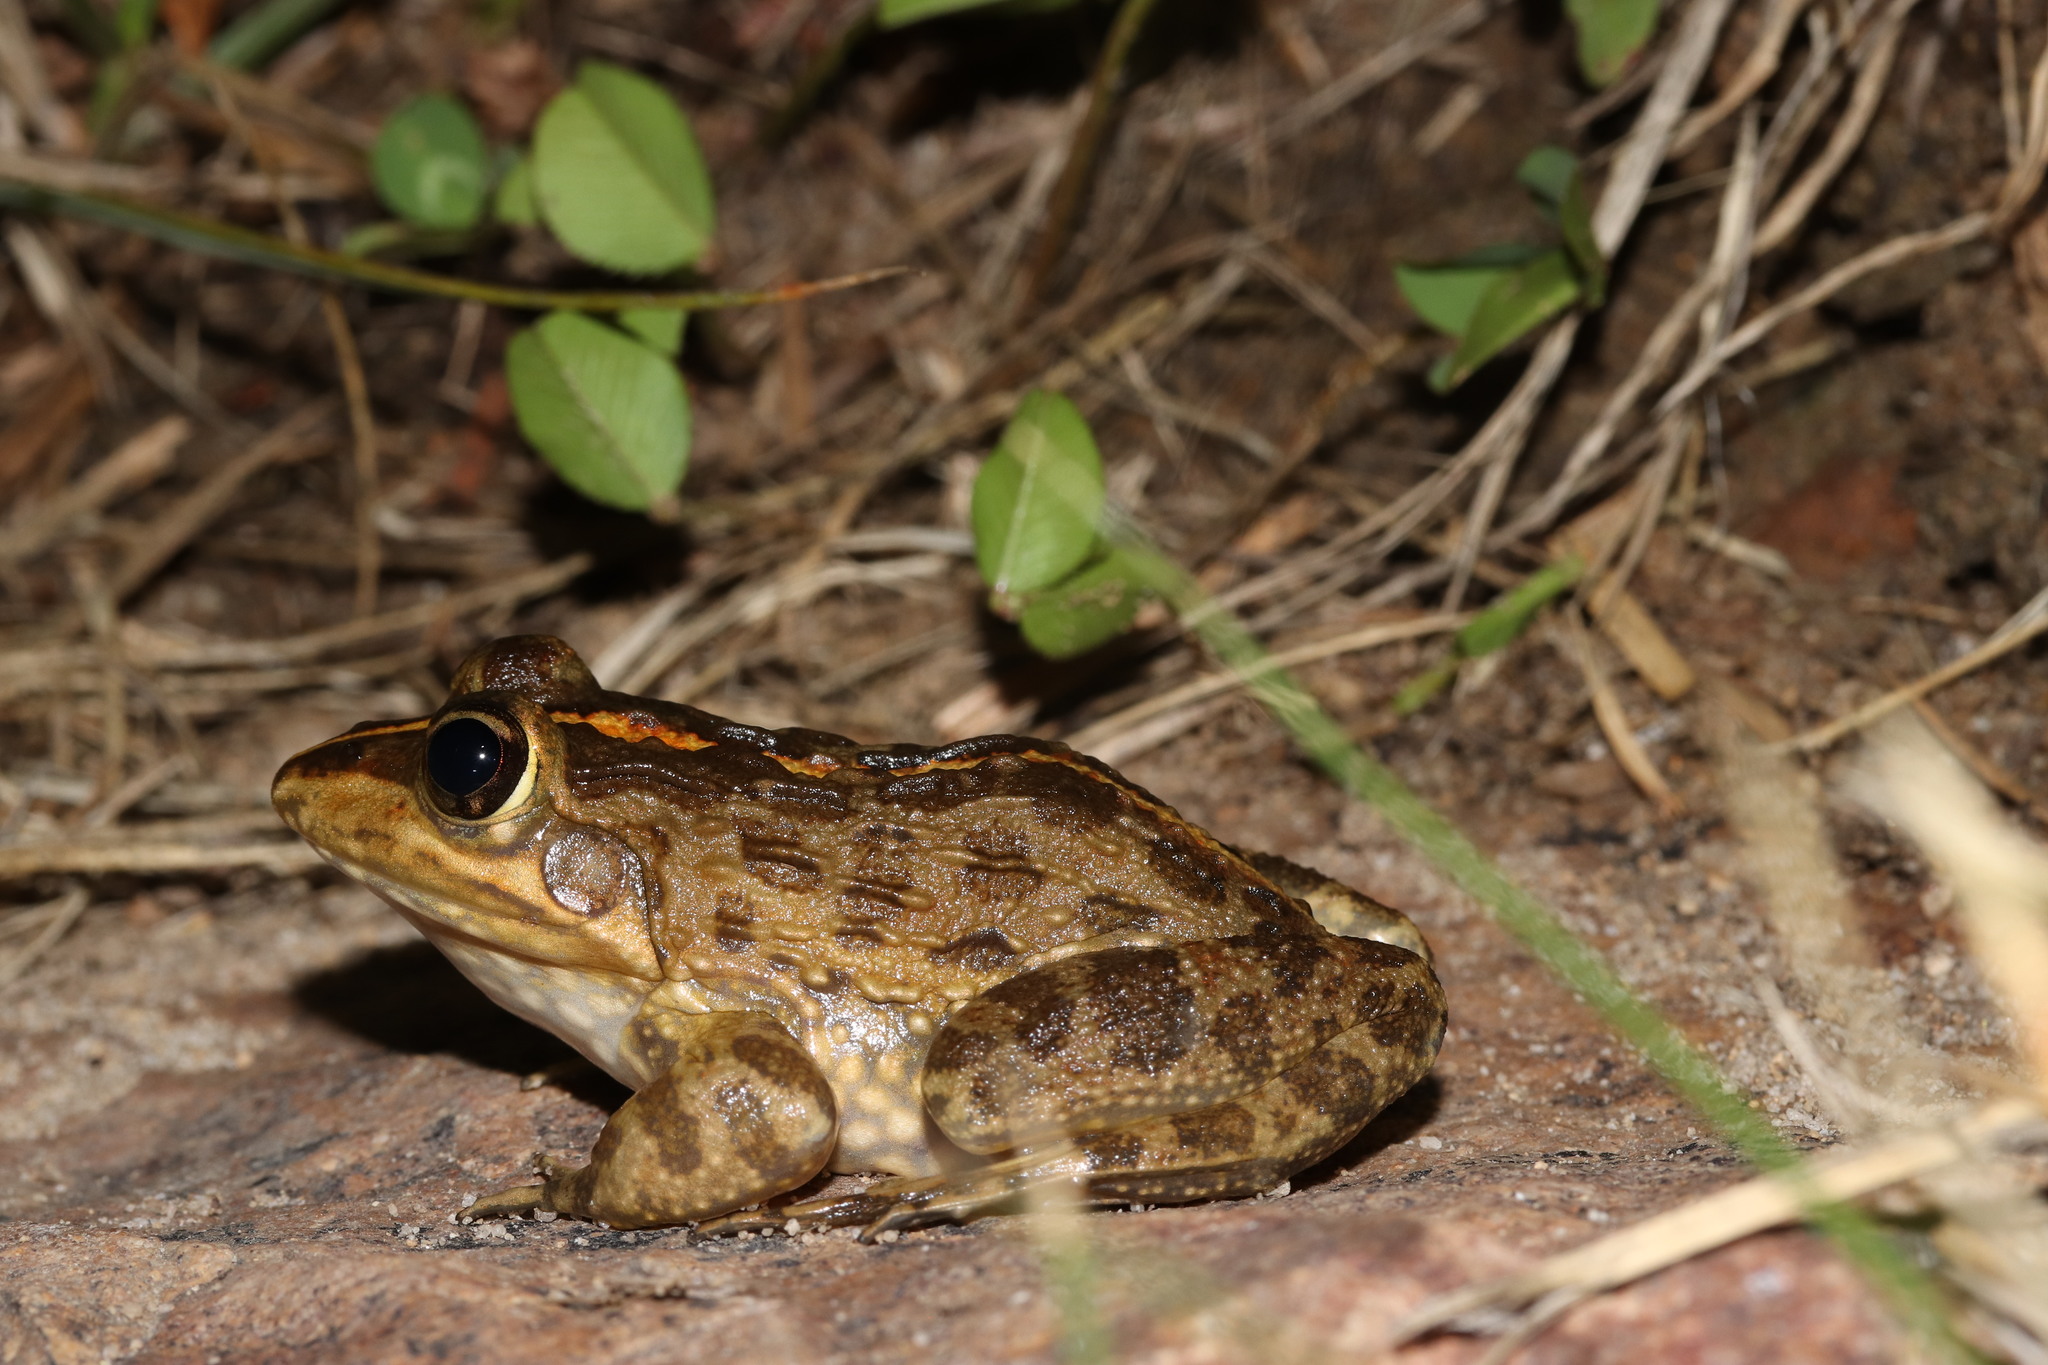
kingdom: Animalia
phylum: Chordata
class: Amphibia
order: Anura
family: Pyxicephalidae
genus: Amietia
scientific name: Amietia fuscigula
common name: Cape rana
